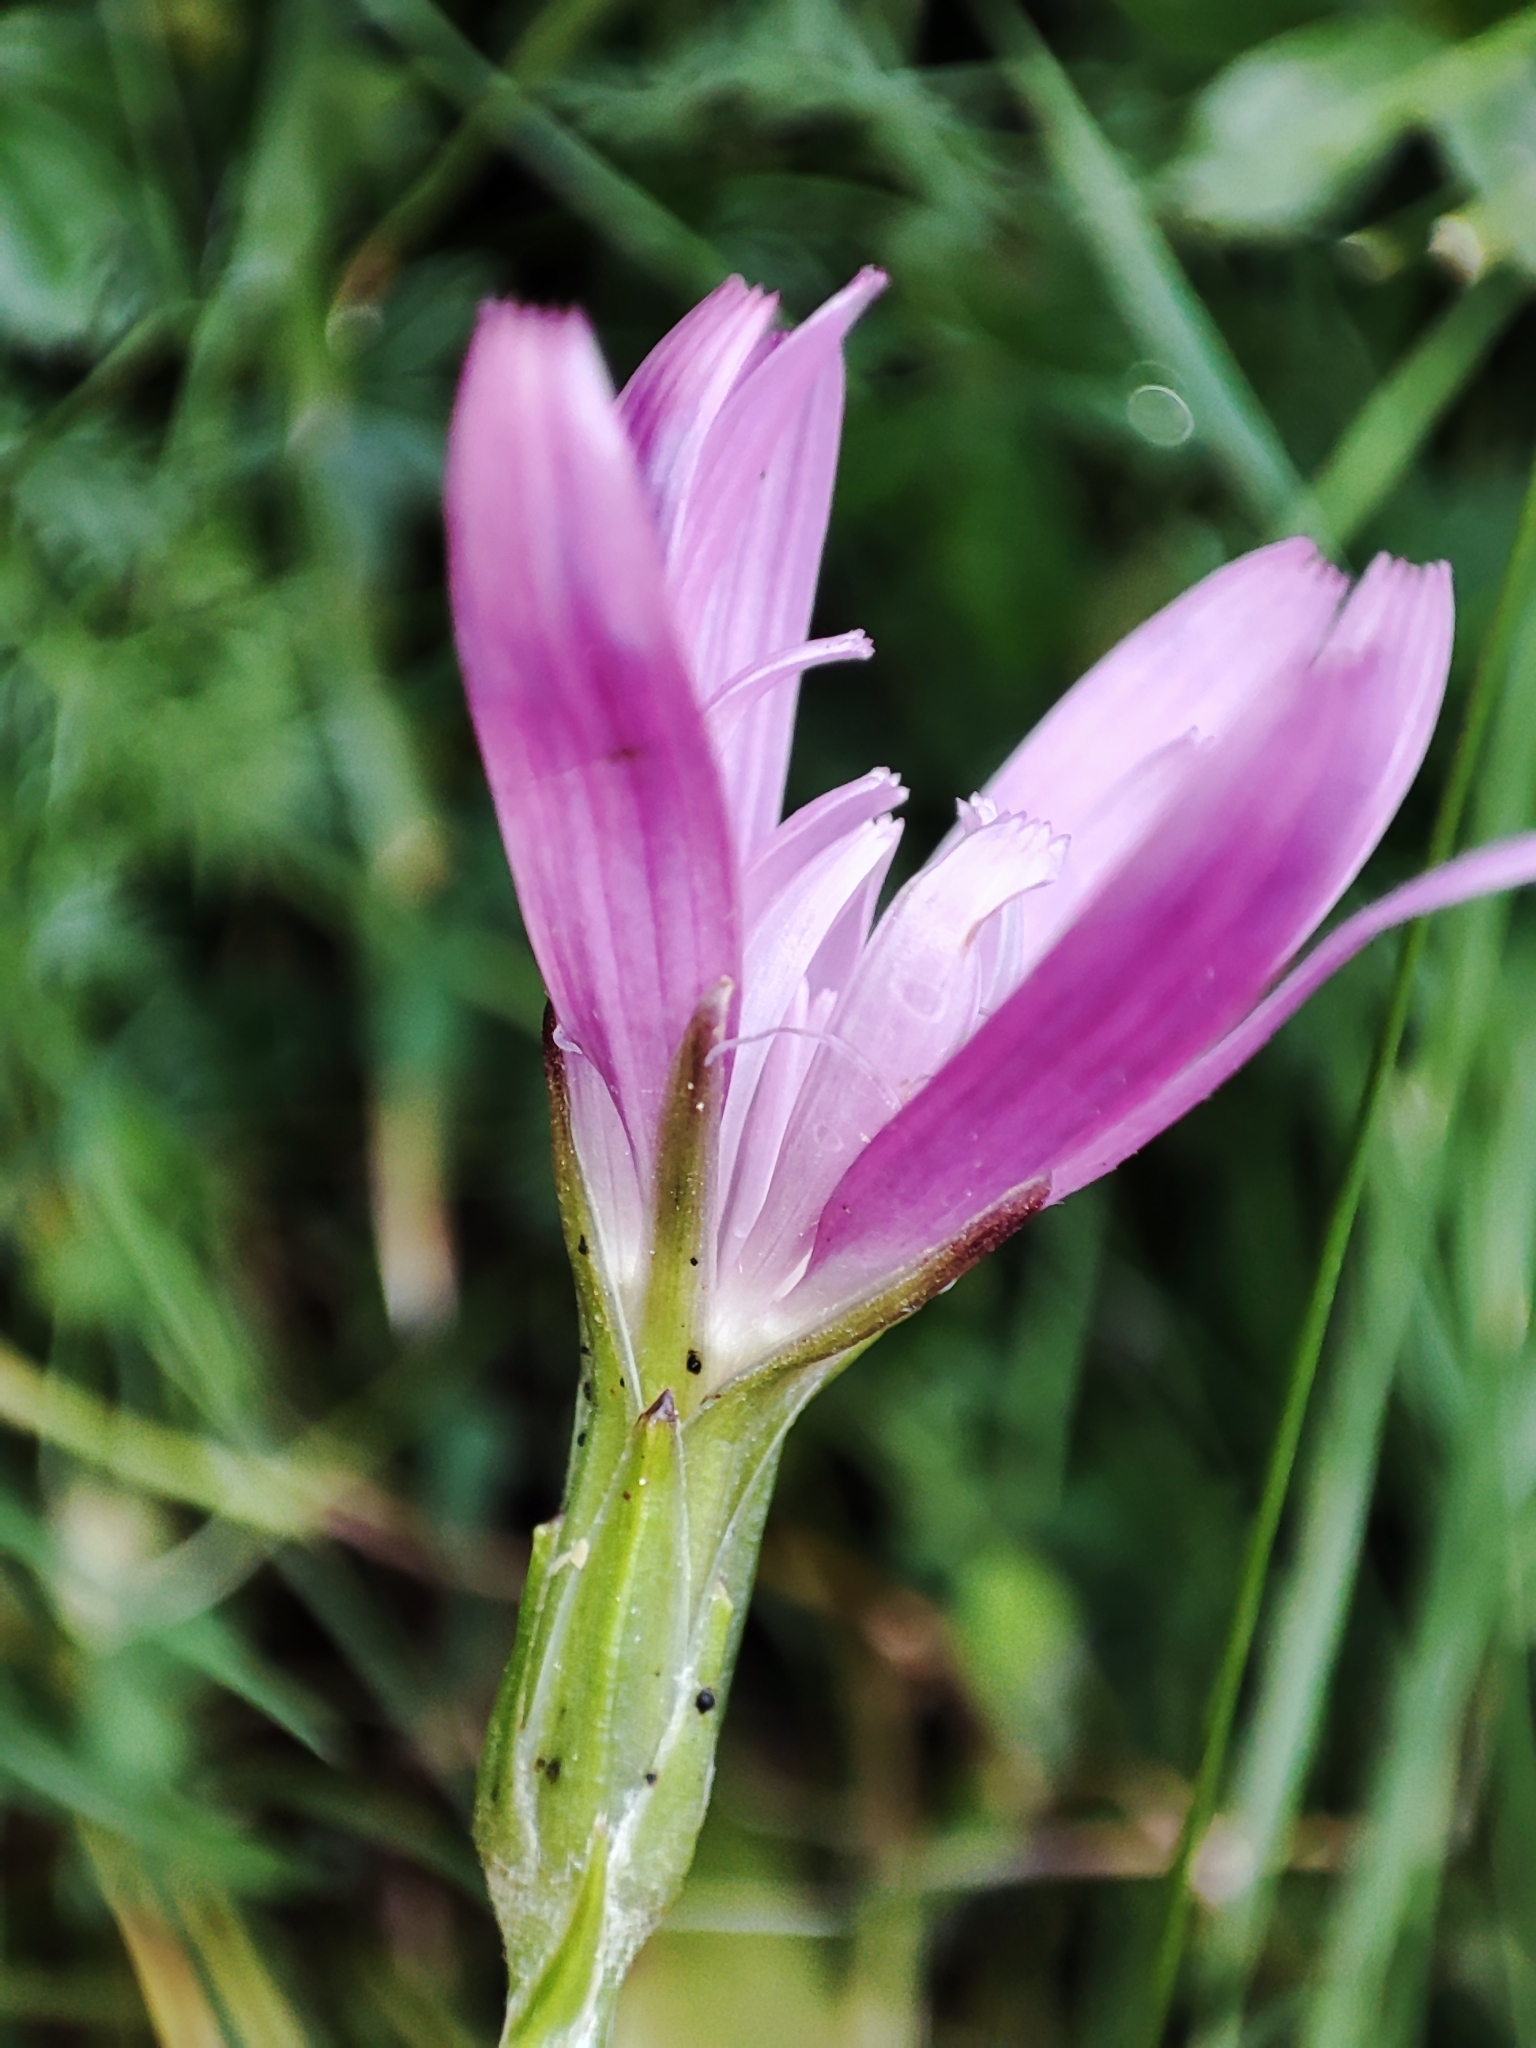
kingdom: Plantae
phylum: Tracheophyta
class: Magnoliopsida
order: Asterales
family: Asteraceae
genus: Scorzonera
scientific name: Scorzonera rosea
